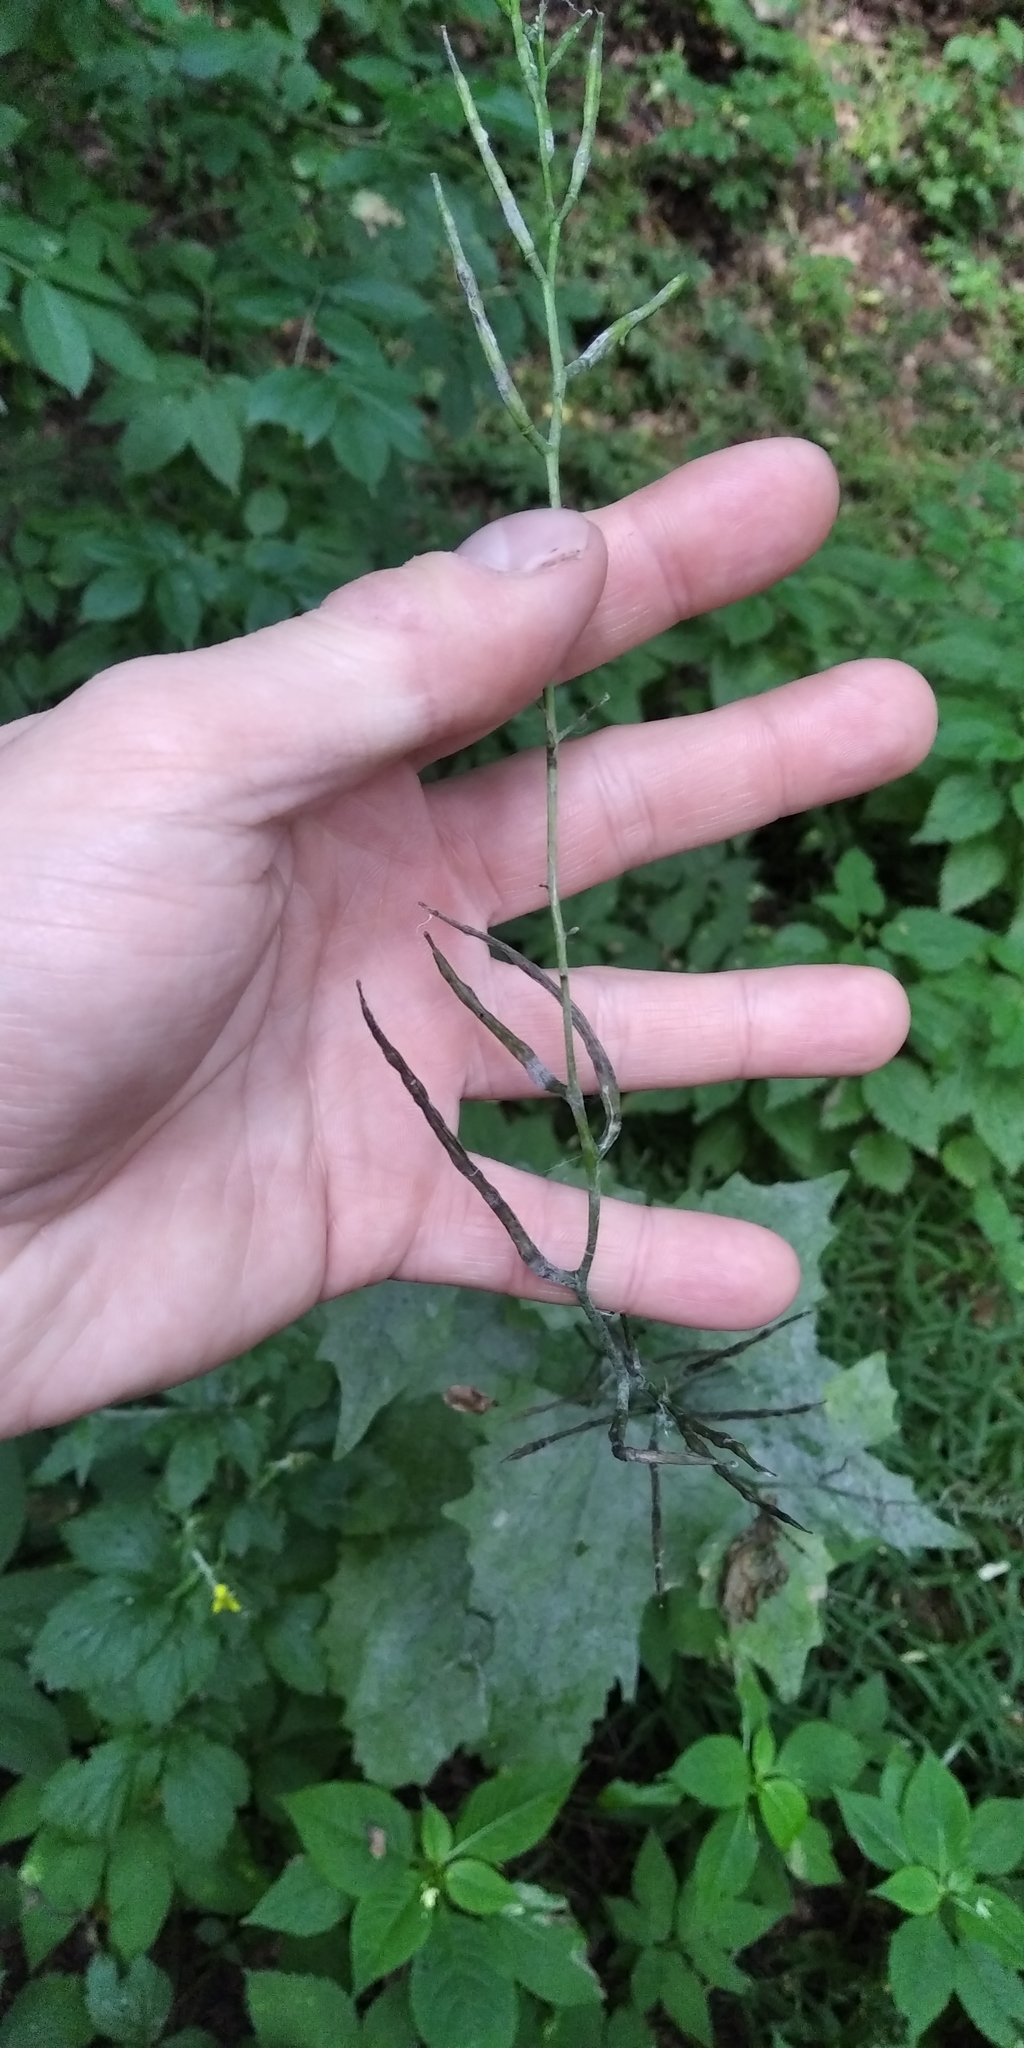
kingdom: Plantae
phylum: Tracheophyta
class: Magnoliopsida
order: Brassicales
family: Brassicaceae
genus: Alliaria
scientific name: Alliaria petiolata
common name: Garlic mustard
